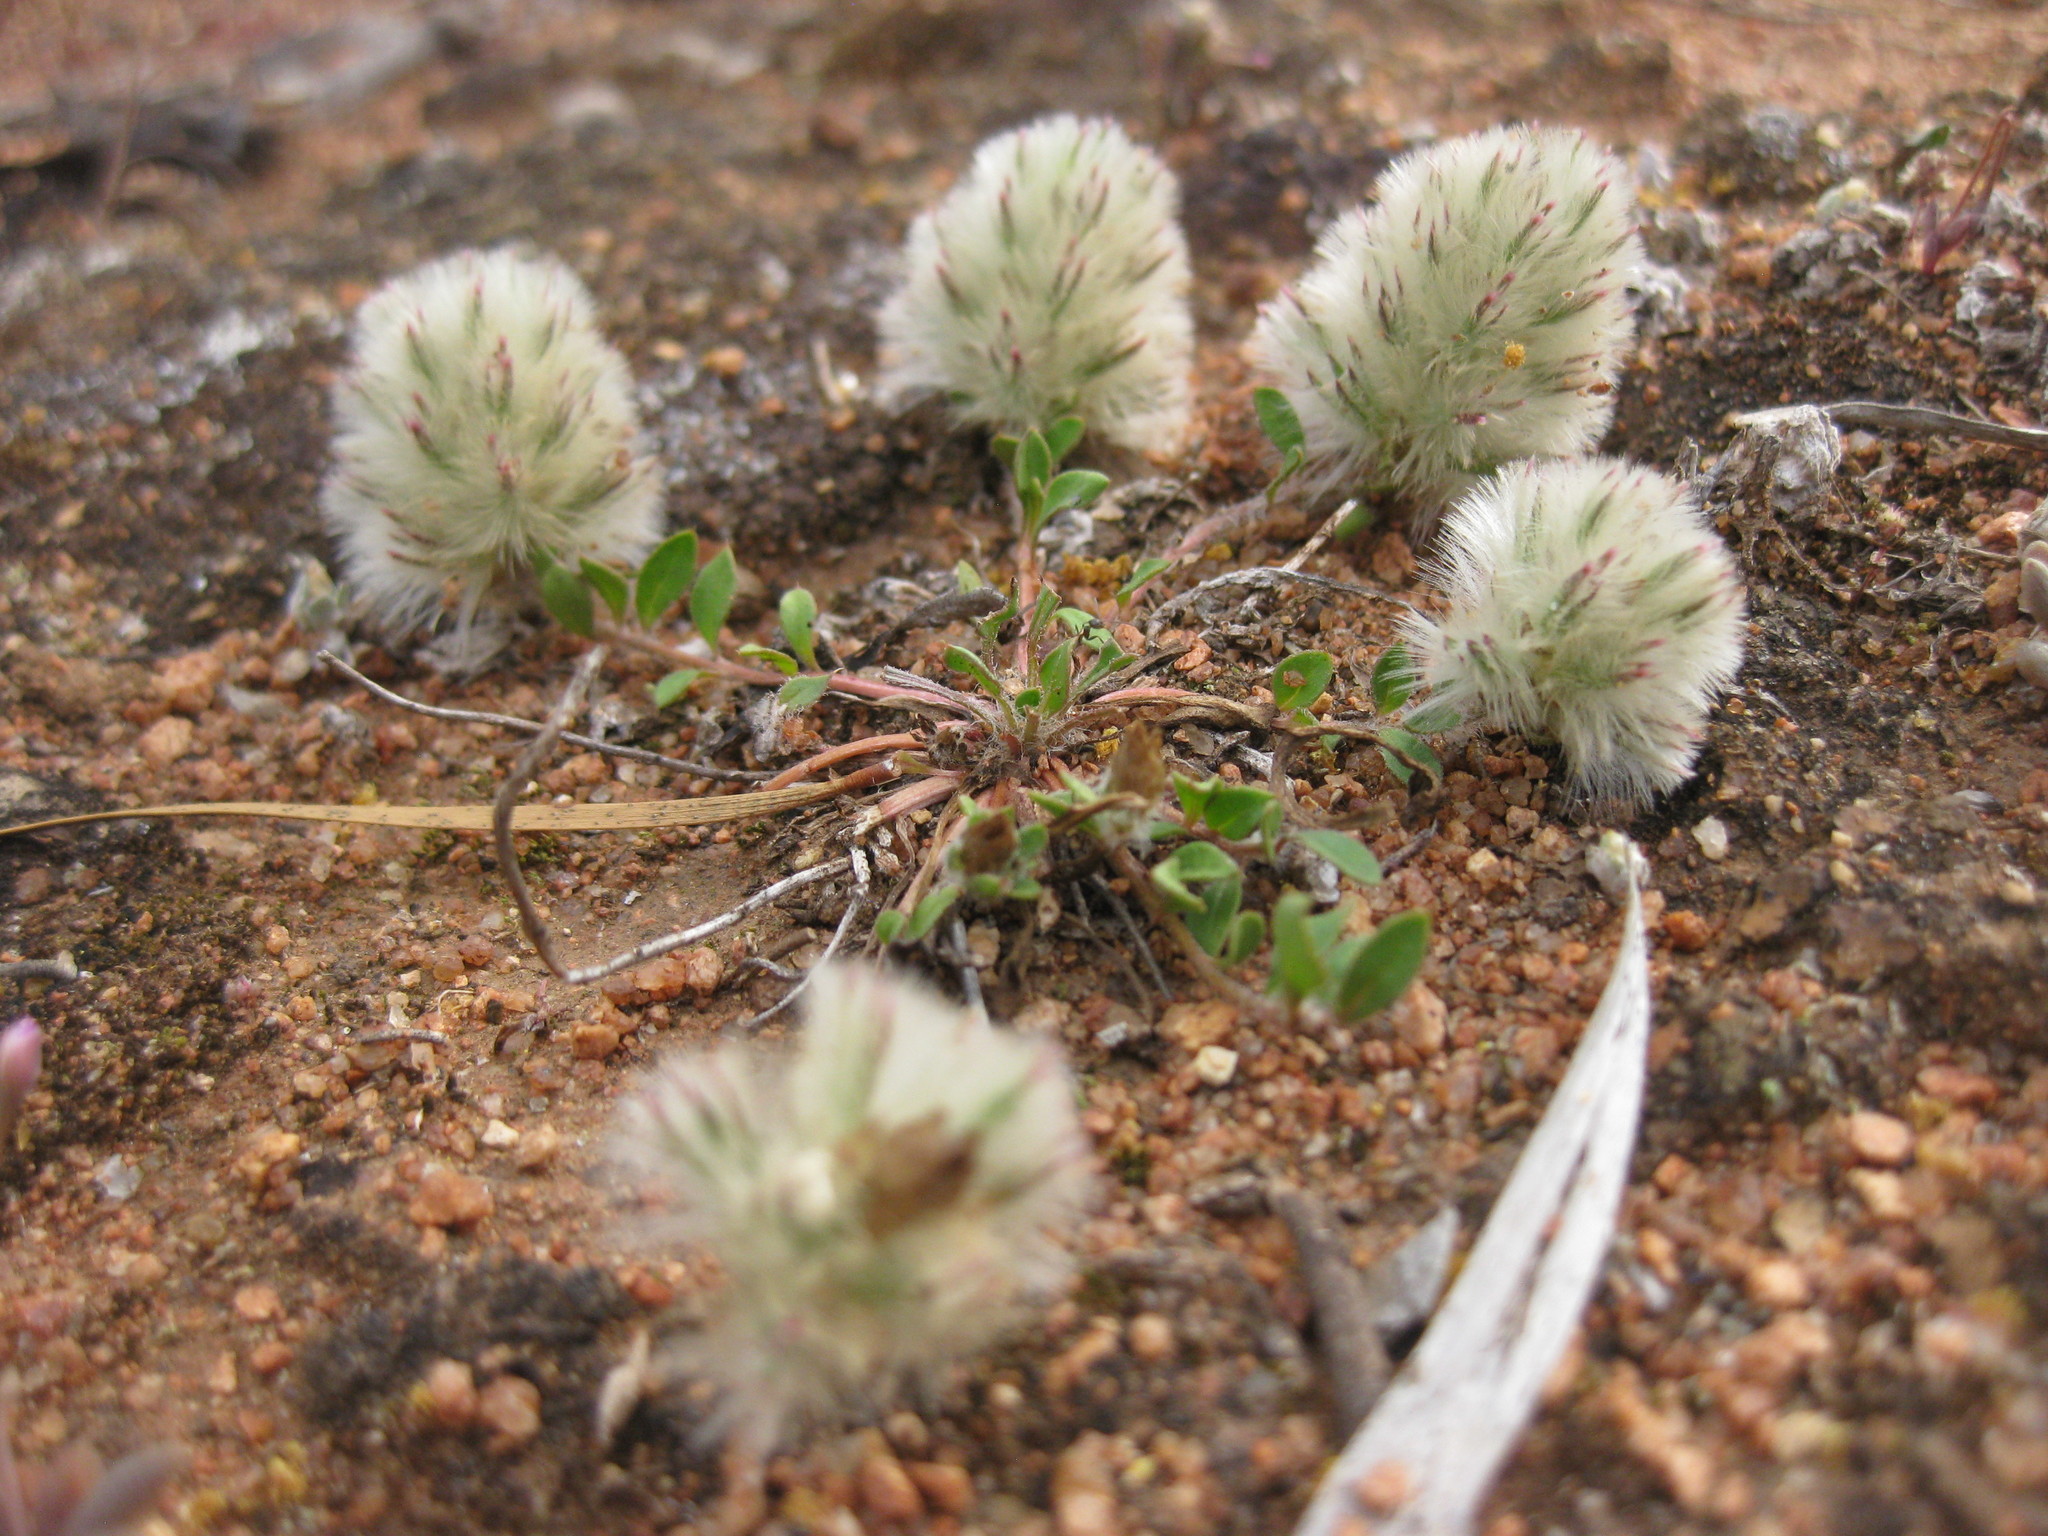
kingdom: Plantae
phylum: Tracheophyta
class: Magnoliopsida
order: Caryophyllales
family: Amaranthaceae
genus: Ptilotus
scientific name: Ptilotus spathulatus
